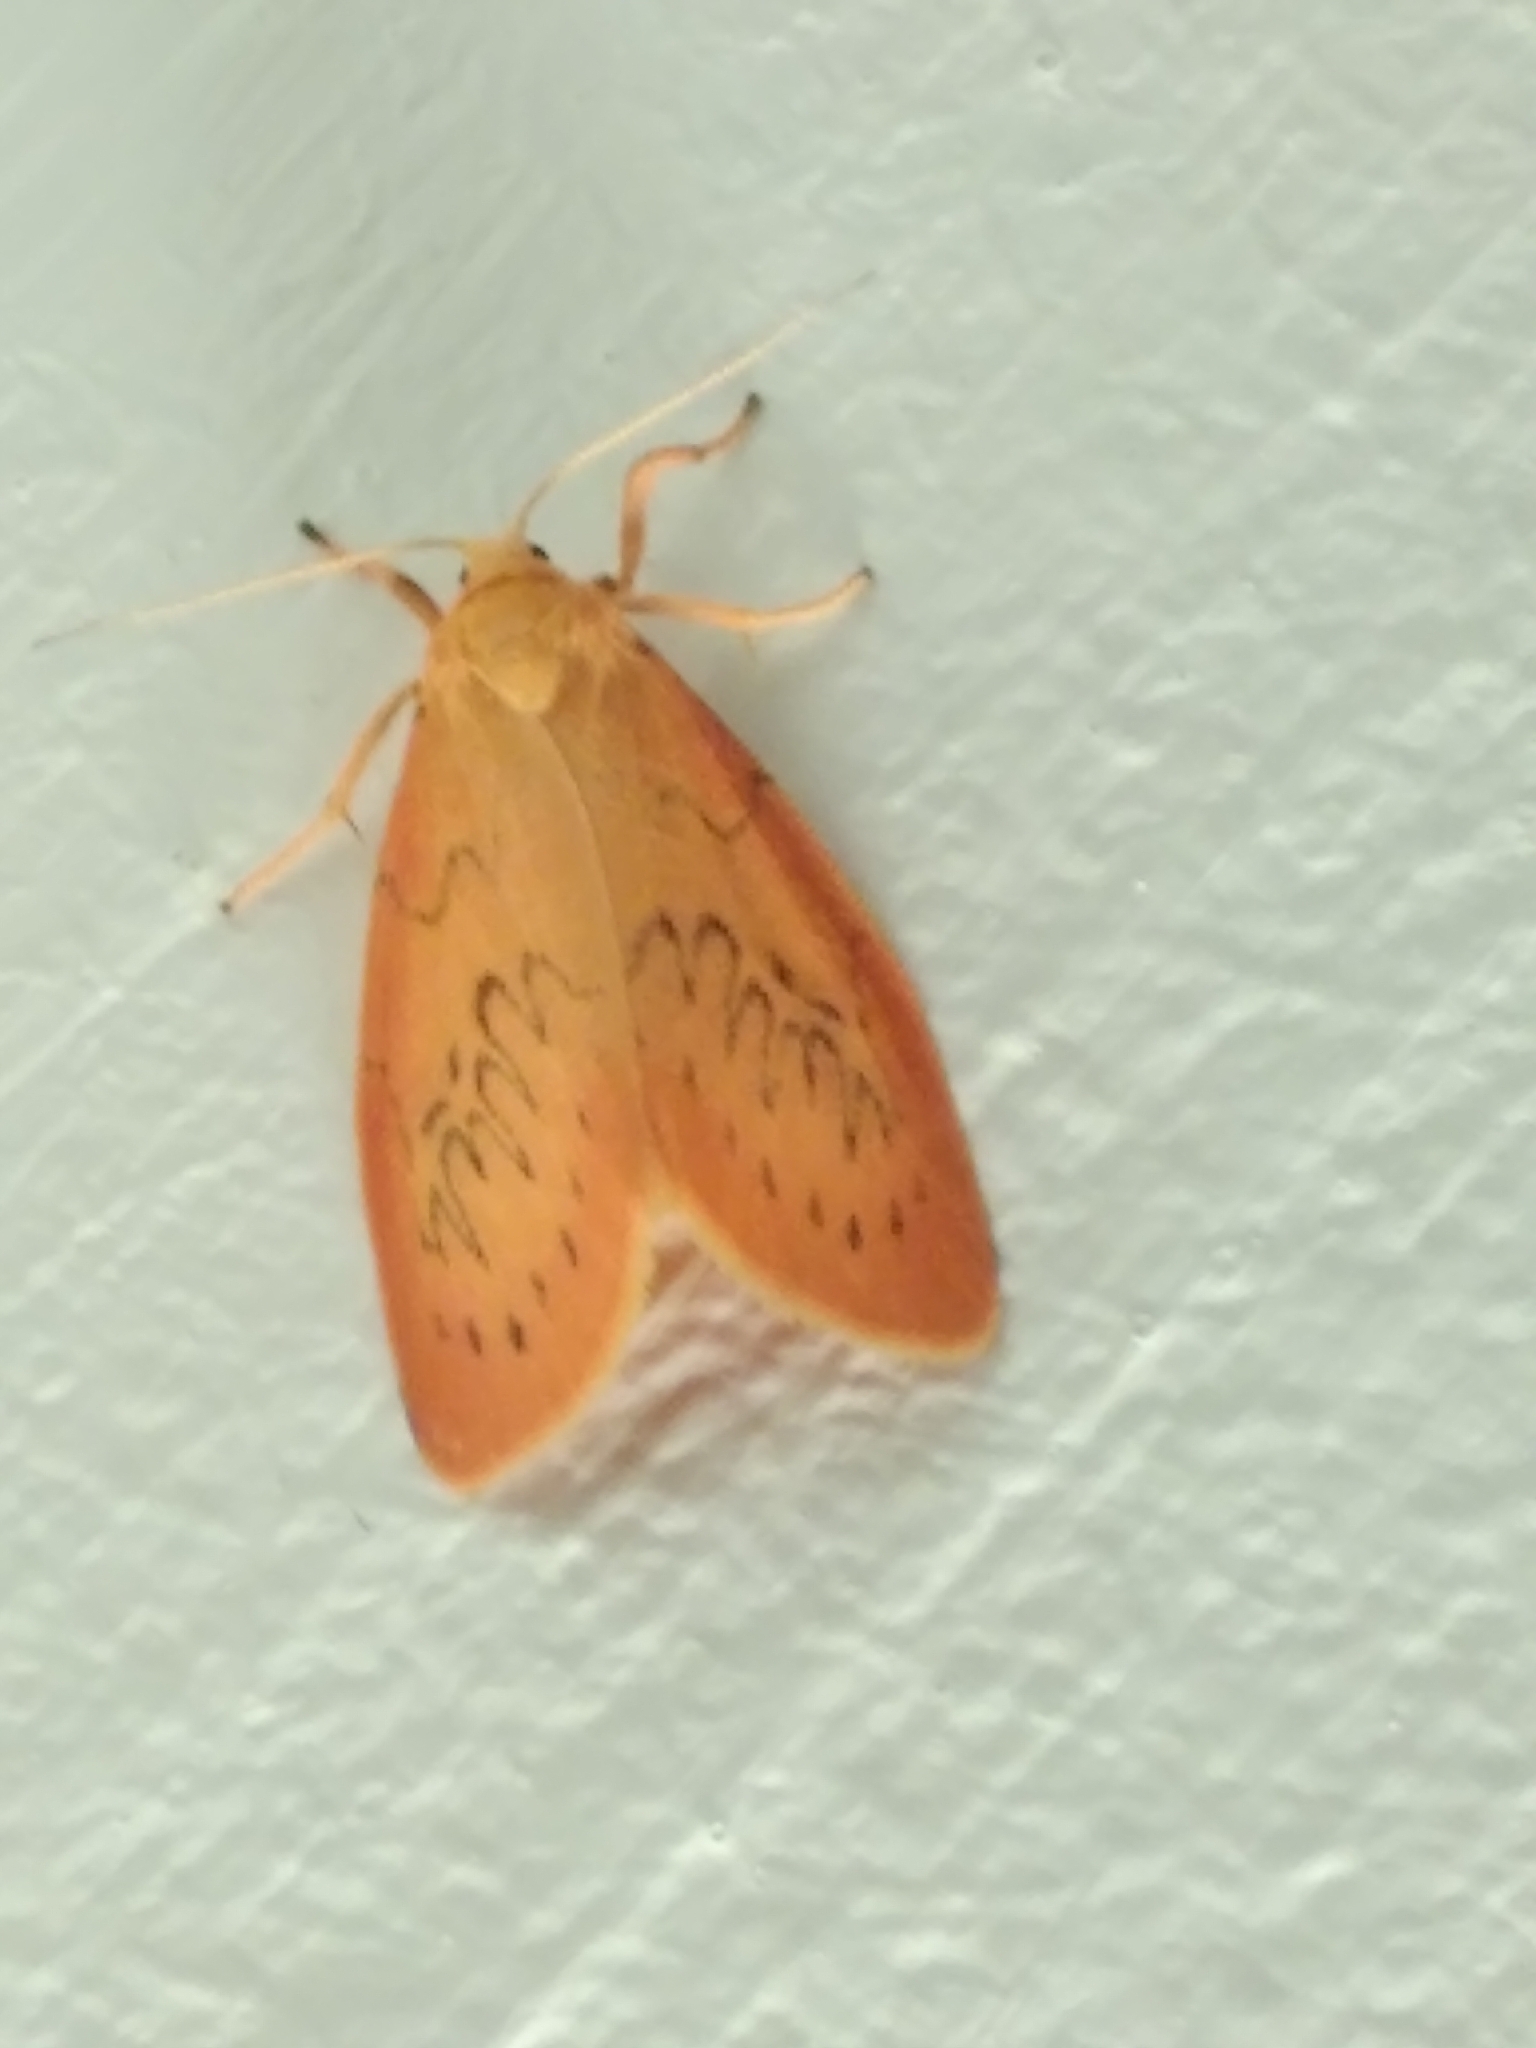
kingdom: Animalia
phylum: Arthropoda
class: Insecta
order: Lepidoptera
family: Erebidae
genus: Miltochrista
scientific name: Miltochrista miniata
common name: Rosy footman
